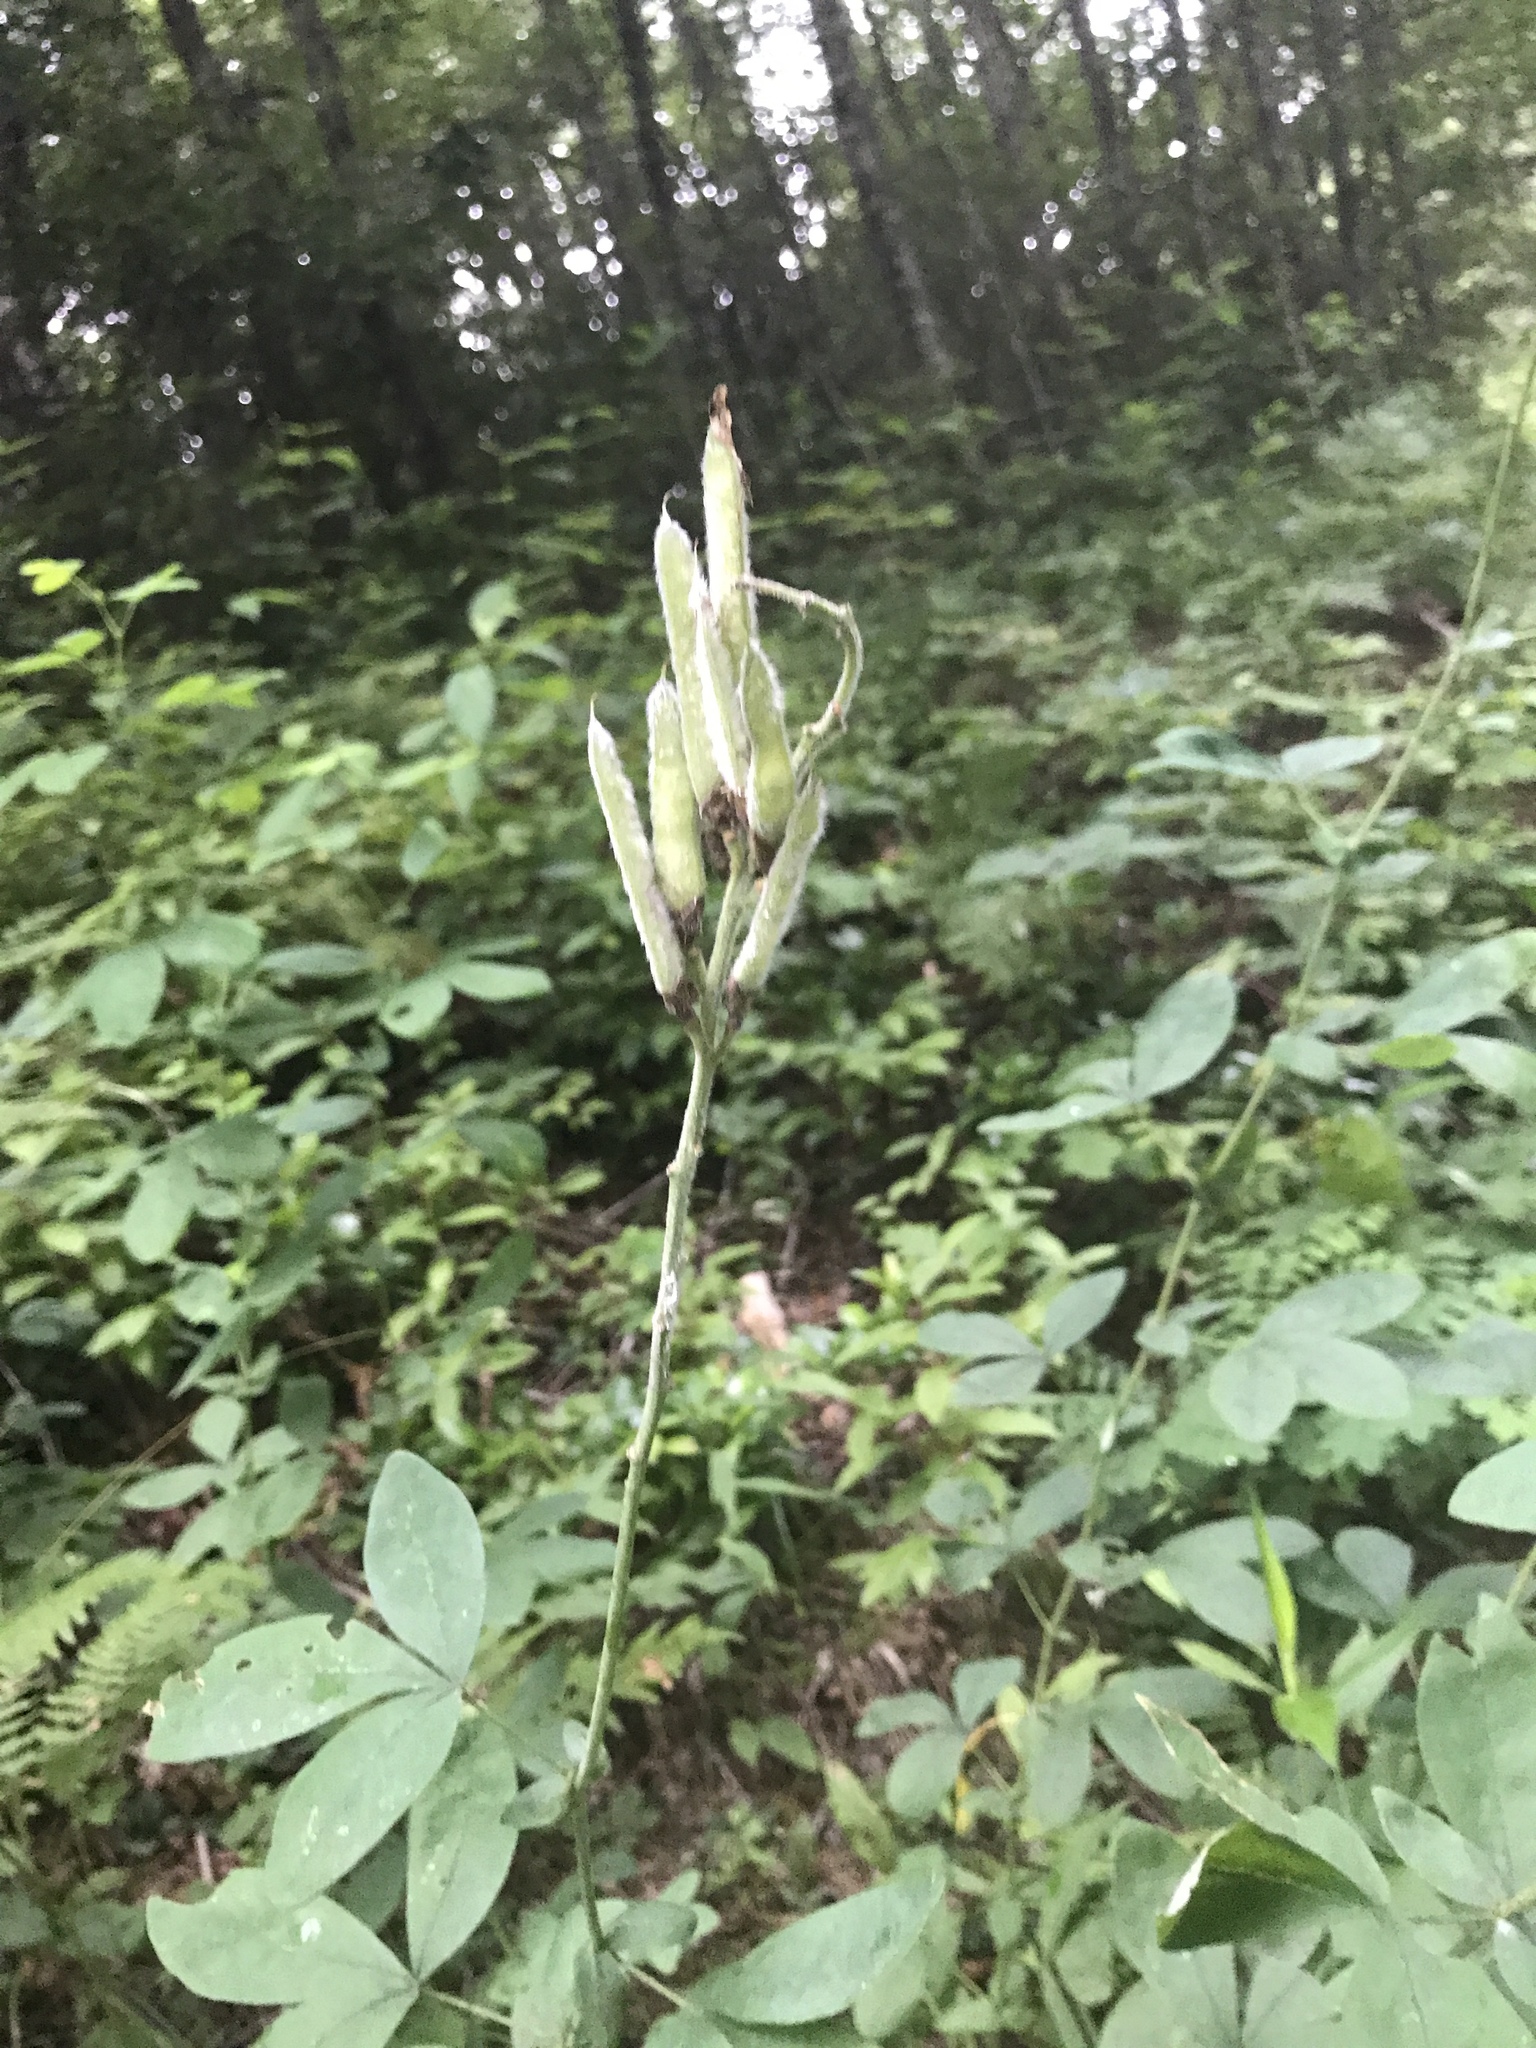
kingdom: Plantae
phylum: Tracheophyta
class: Magnoliopsida
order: Fabales
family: Fabaceae
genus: Thermopsis
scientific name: Thermopsis villosa
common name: Carolina-lupin
